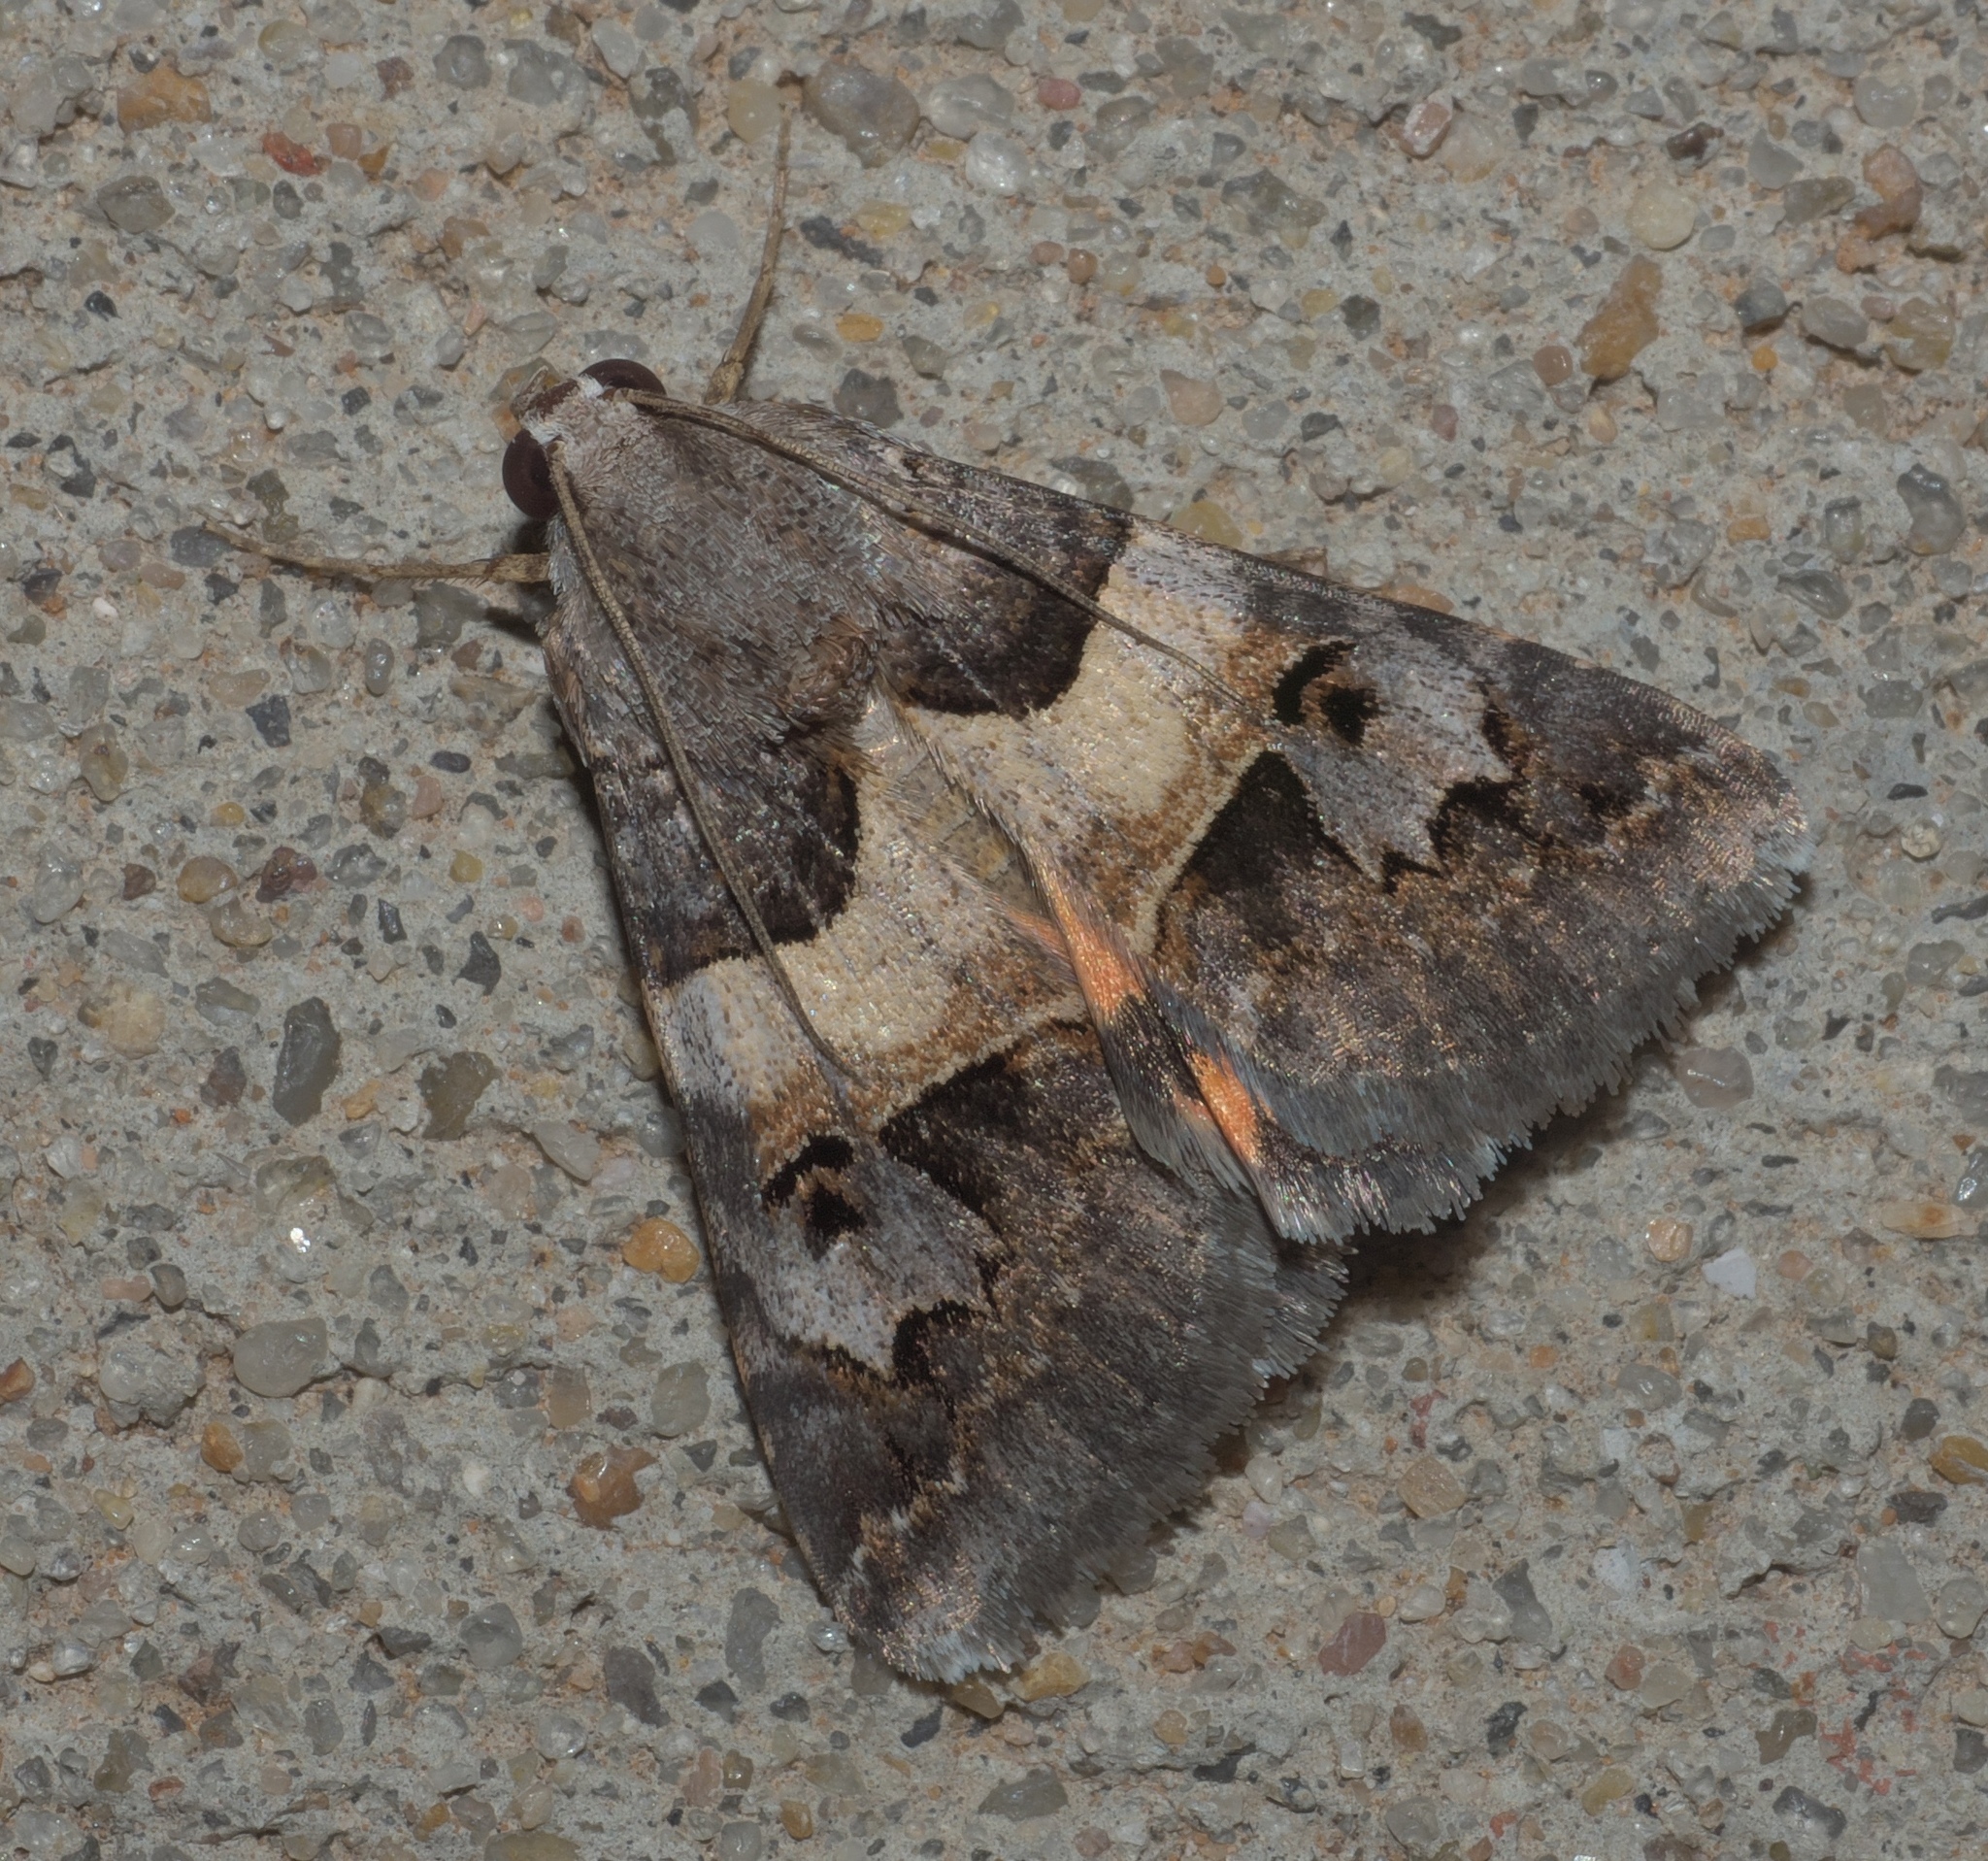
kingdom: Animalia
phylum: Arthropoda
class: Insecta
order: Lepidoptera
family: Erebidae
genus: Drasteria
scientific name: Drasteria ingeniculata
